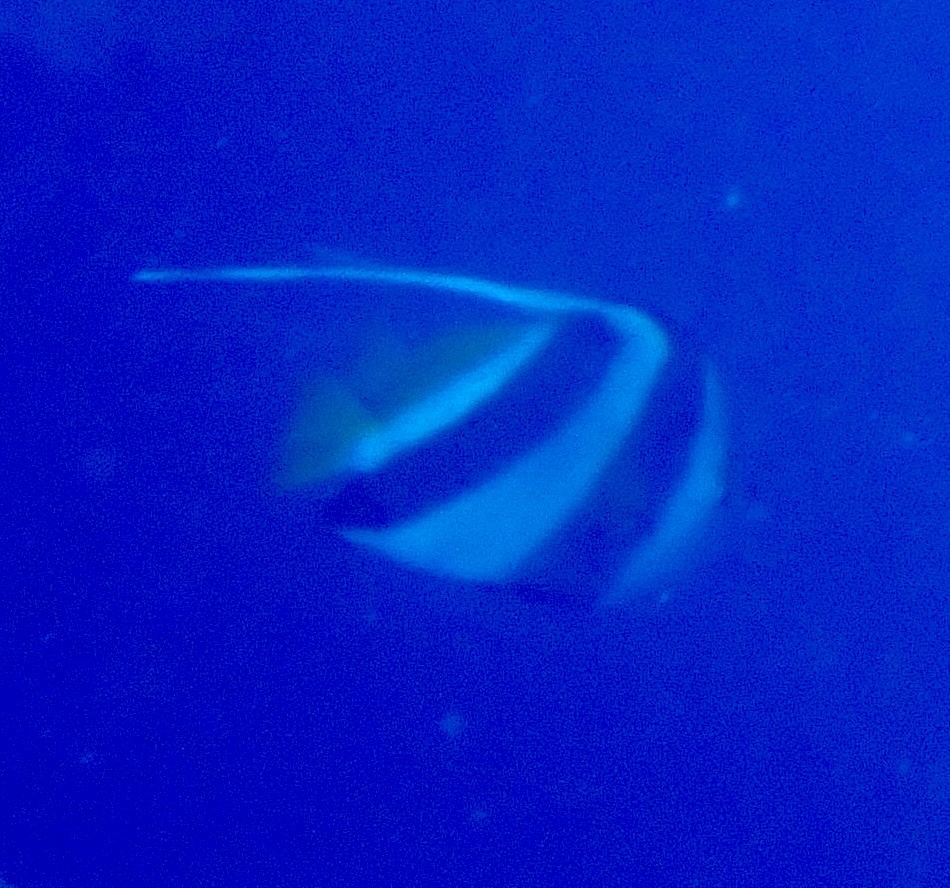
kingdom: Animalia
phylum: Chordata
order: Perciformes
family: Chaetodontidae
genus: Heniochus
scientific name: Heniochus acuminatus
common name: Pennant coralfish
